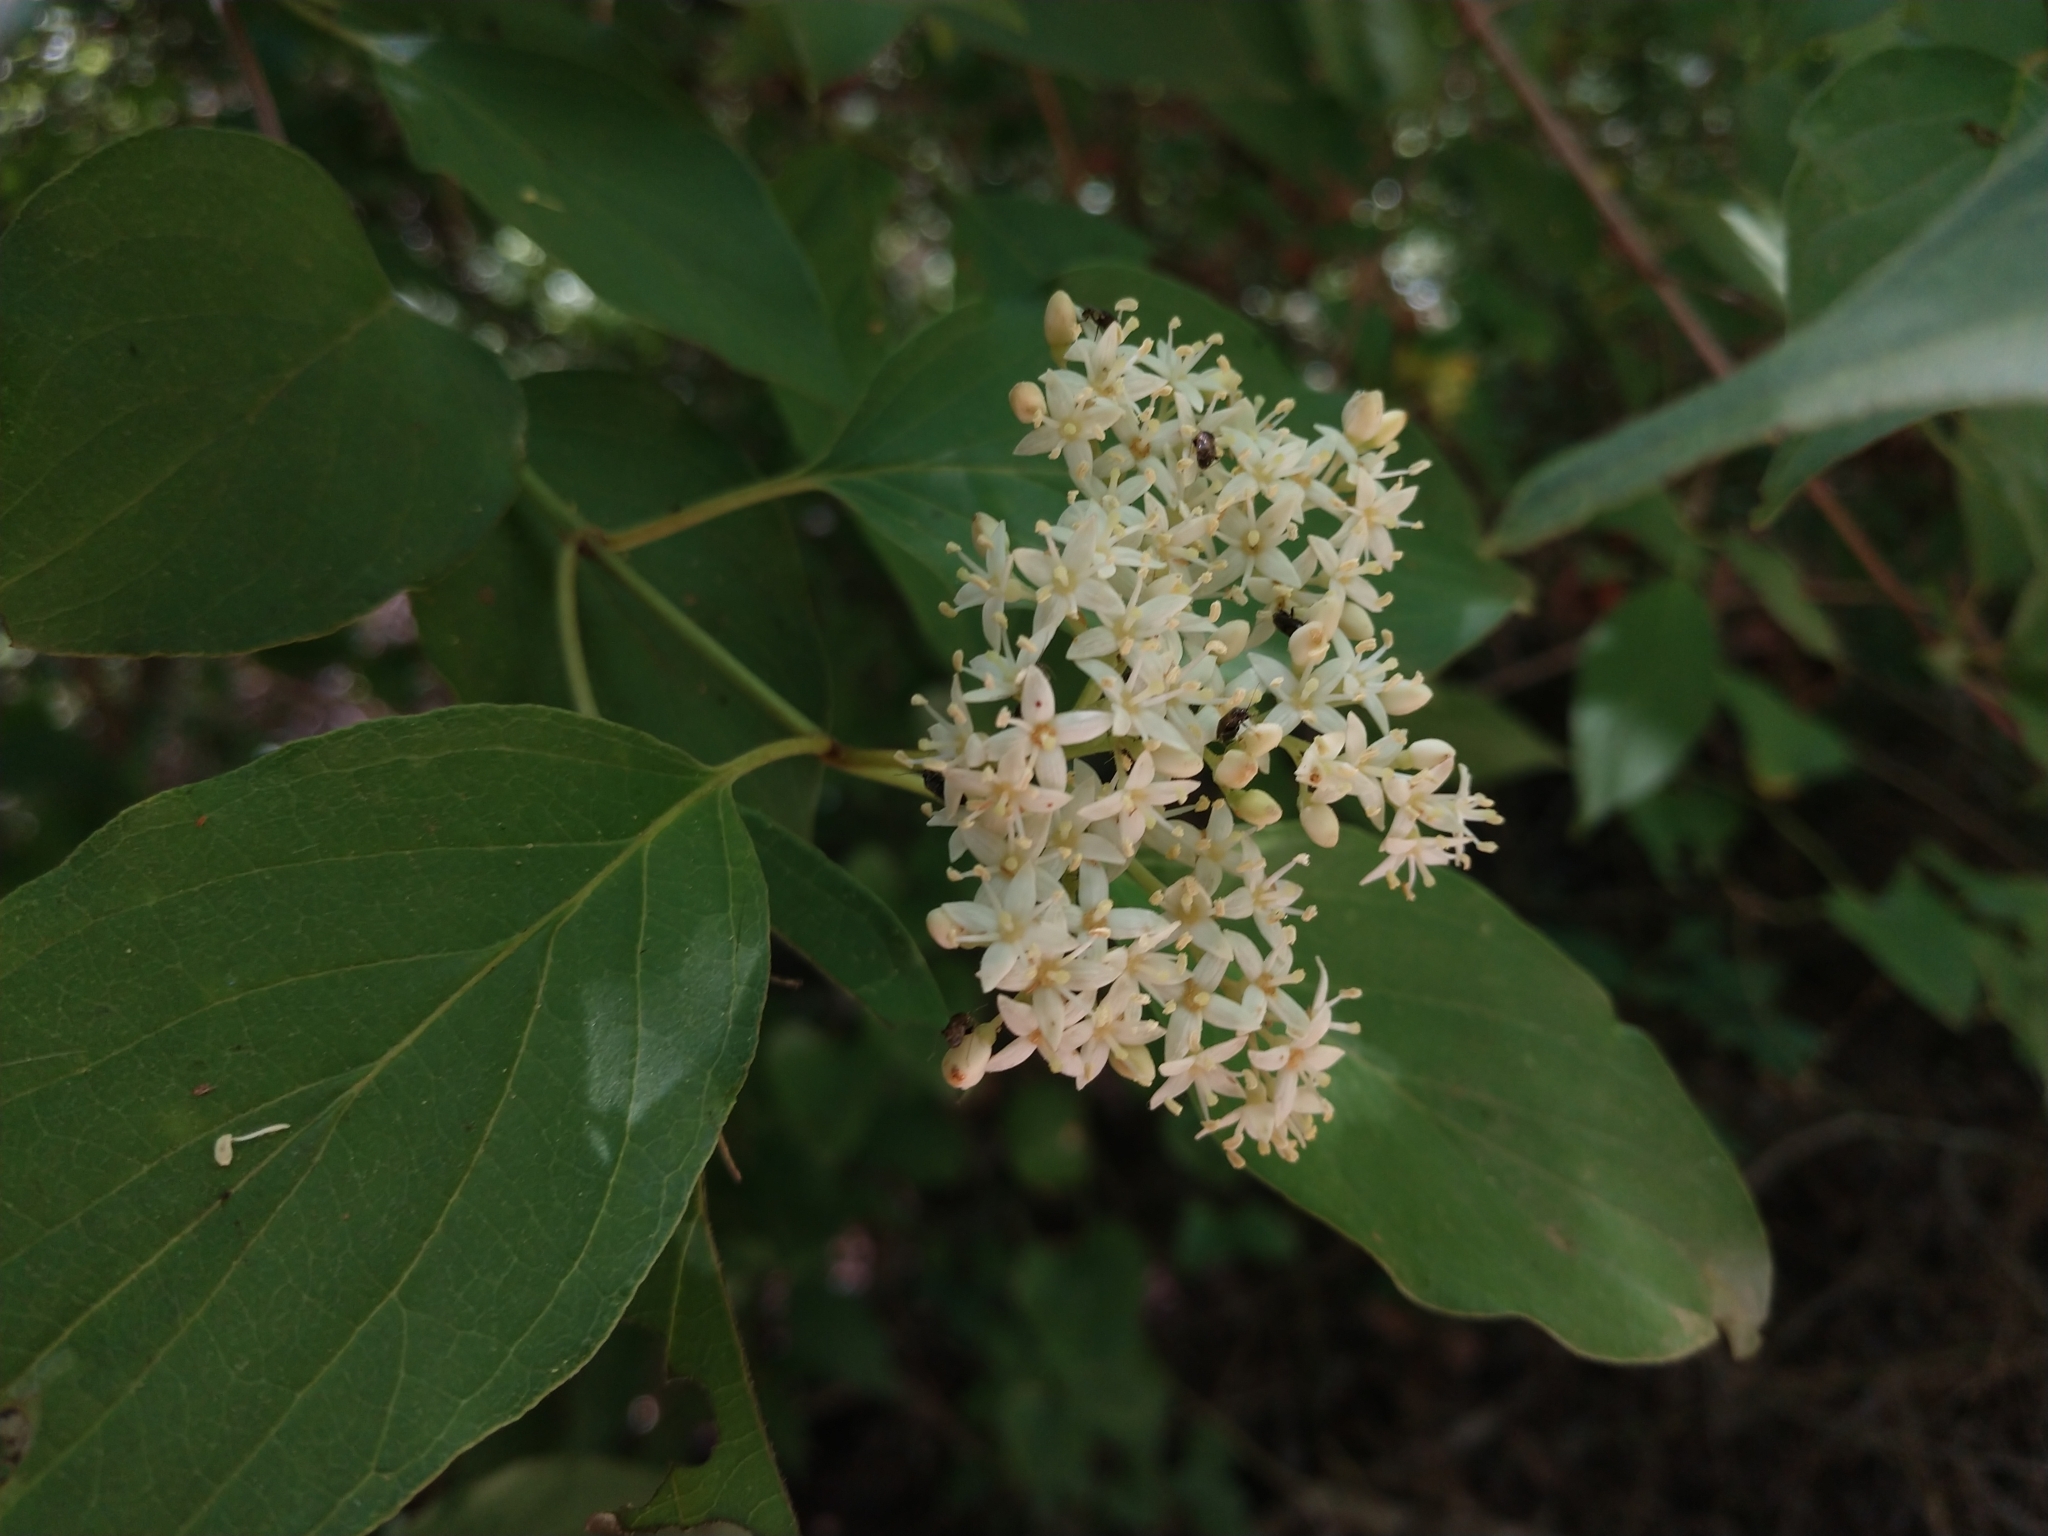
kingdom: Plantae
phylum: Tracheophyta
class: Magnoliopsida
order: Cornales
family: Cornaceae
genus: Cornus
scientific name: Cornus drummondii
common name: Rough-leaf dogwood
